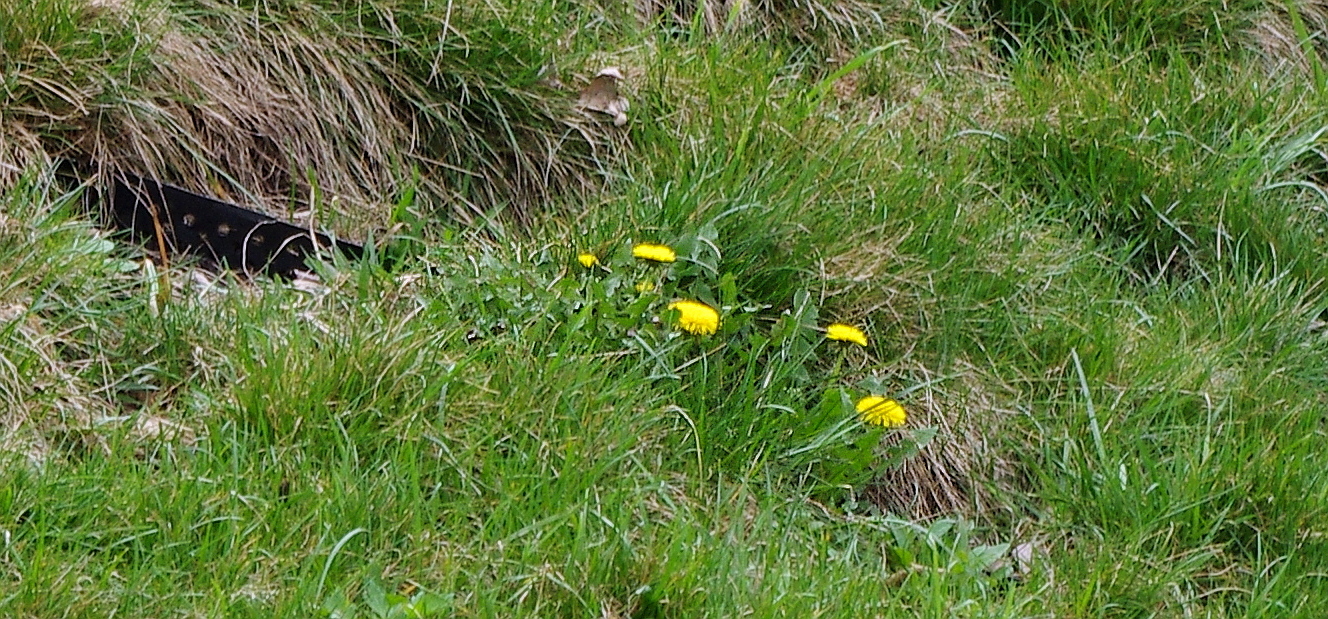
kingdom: Plantae
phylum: Tracheophyta
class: Magnoliopsida
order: Asterales
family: Asteraceae
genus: Taraxacum
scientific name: Taraxacum officinale
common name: Common dandelion
